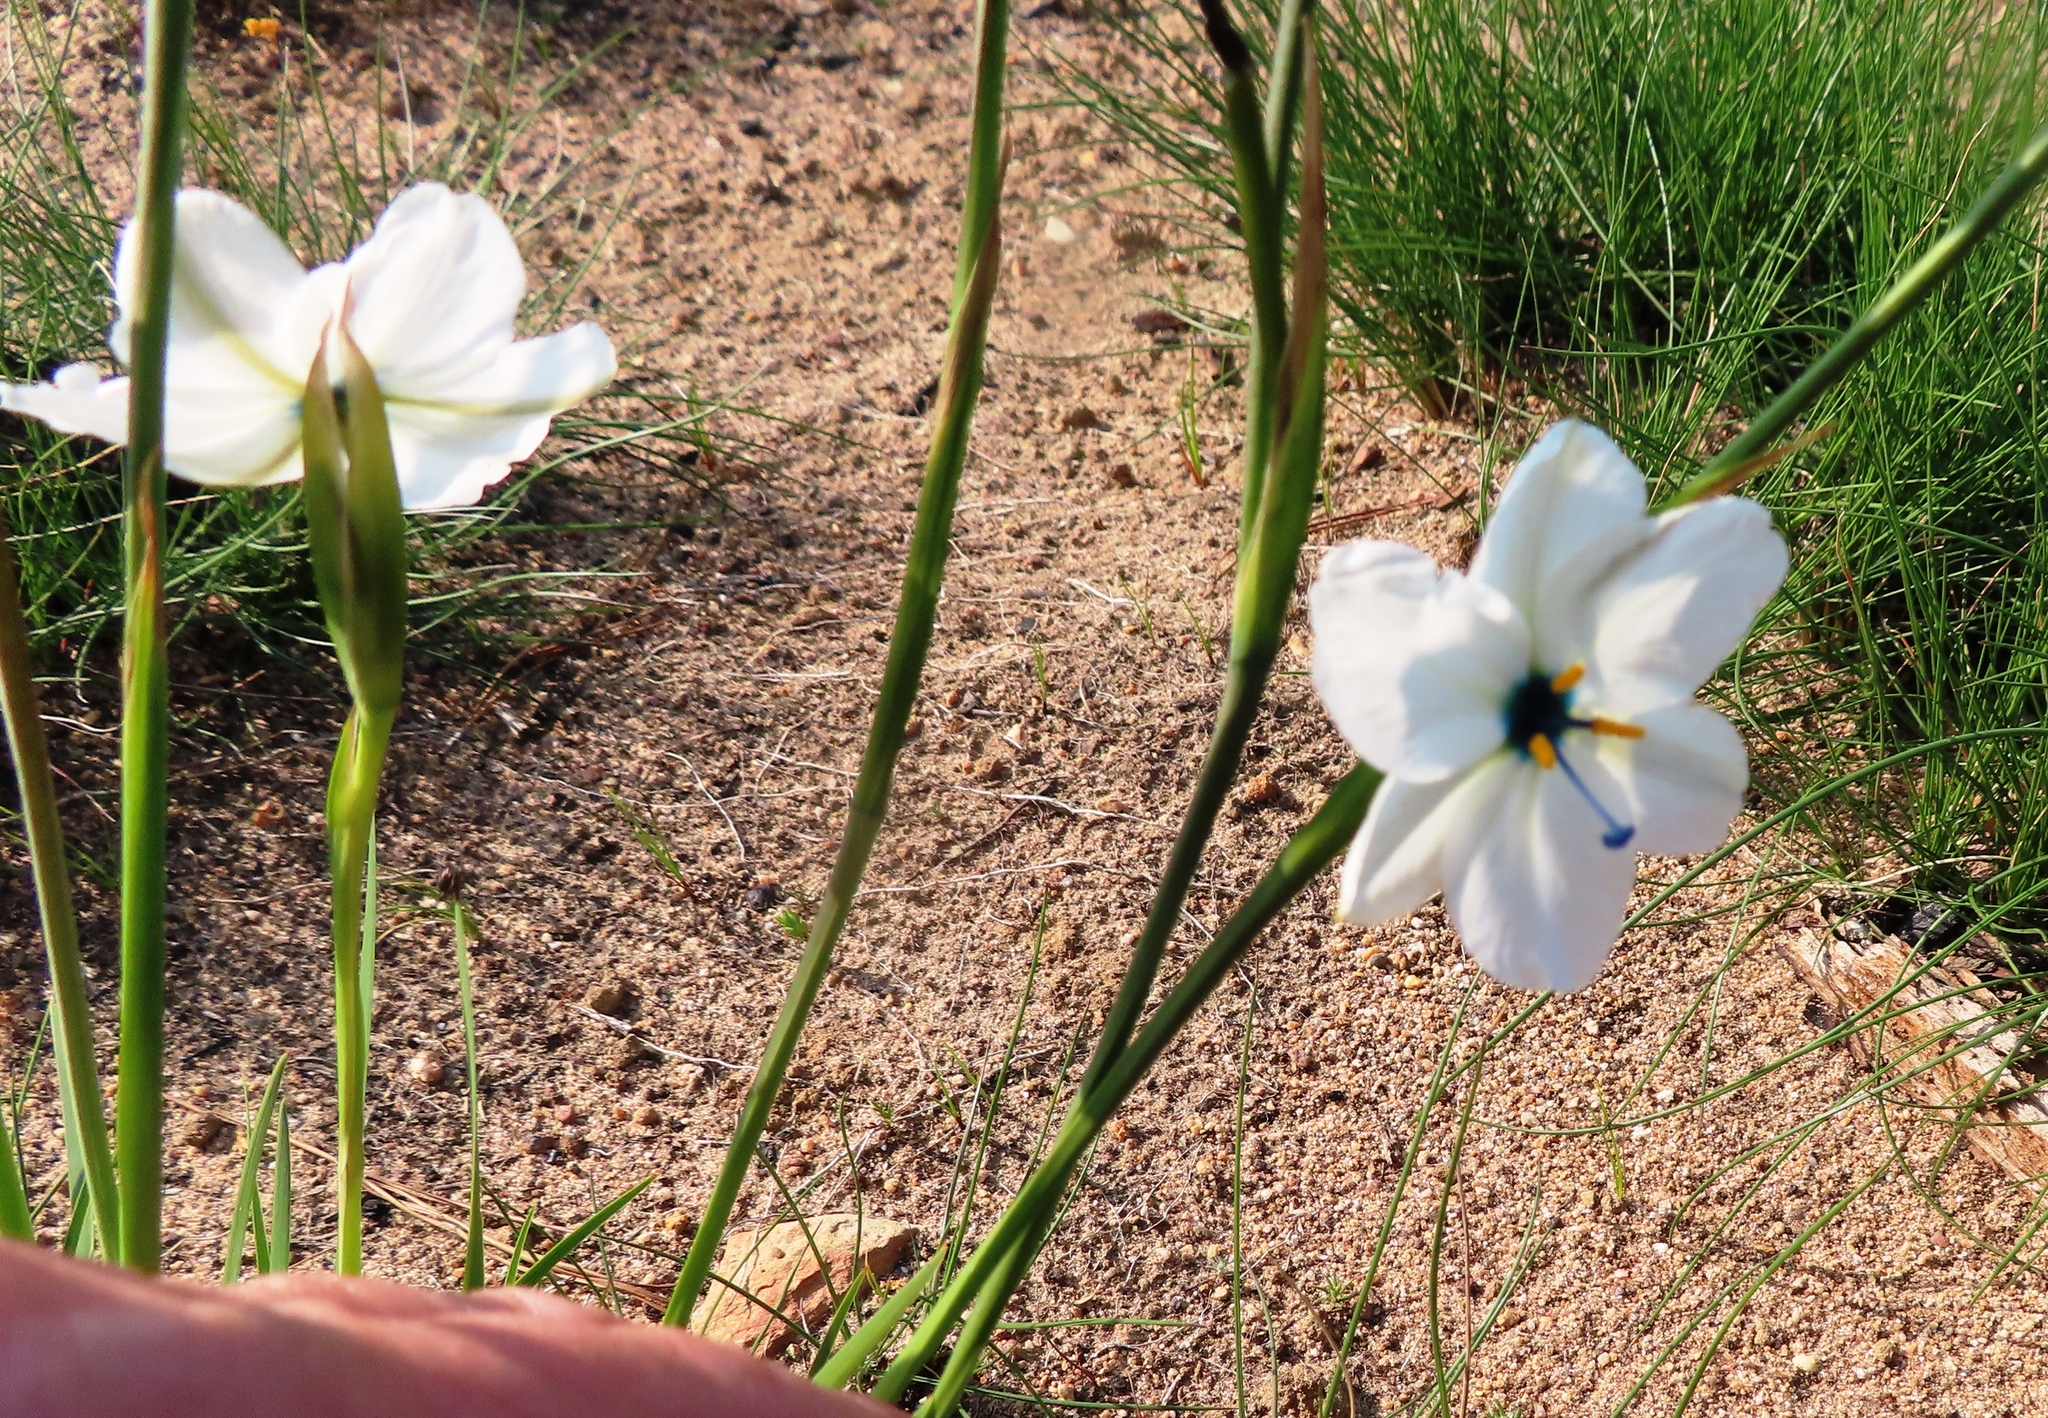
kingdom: Plantae
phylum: Tracheophyta
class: Liliopsida
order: Asparagales
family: Iridaceae
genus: Aristea
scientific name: Aristea cantharophila
